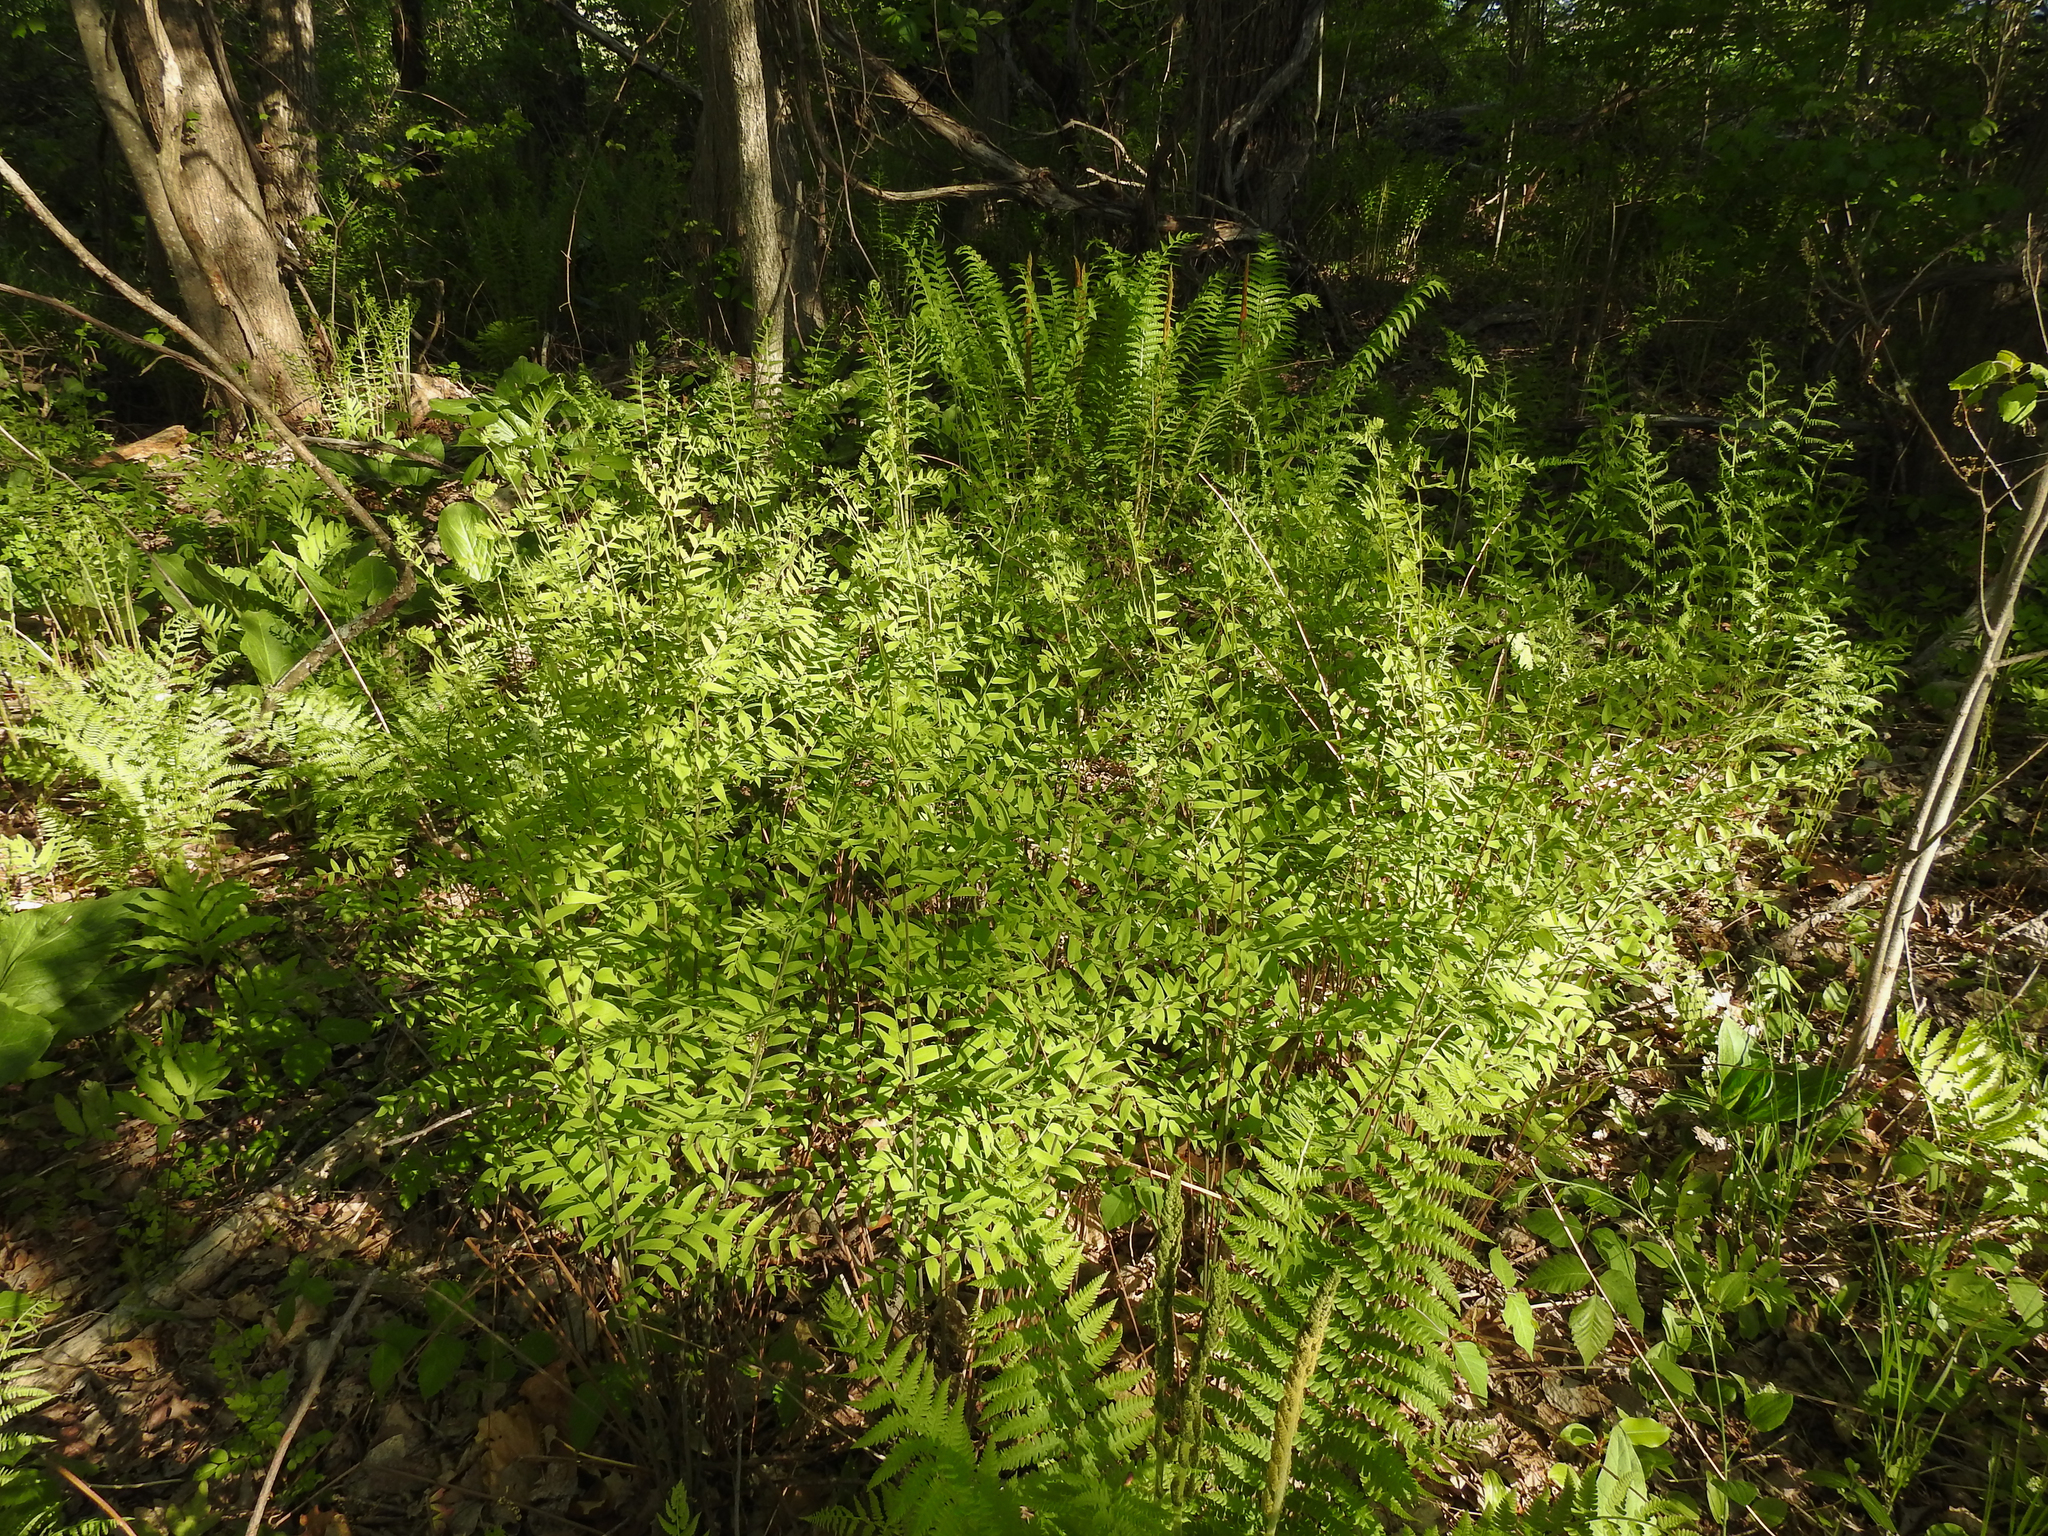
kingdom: Plantae
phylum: Tracheophyta
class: Polypodiopsida
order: Osmundales
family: Osmundaceae
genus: Osmunda
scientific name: Osmunda spectabilis
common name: American royal fern
